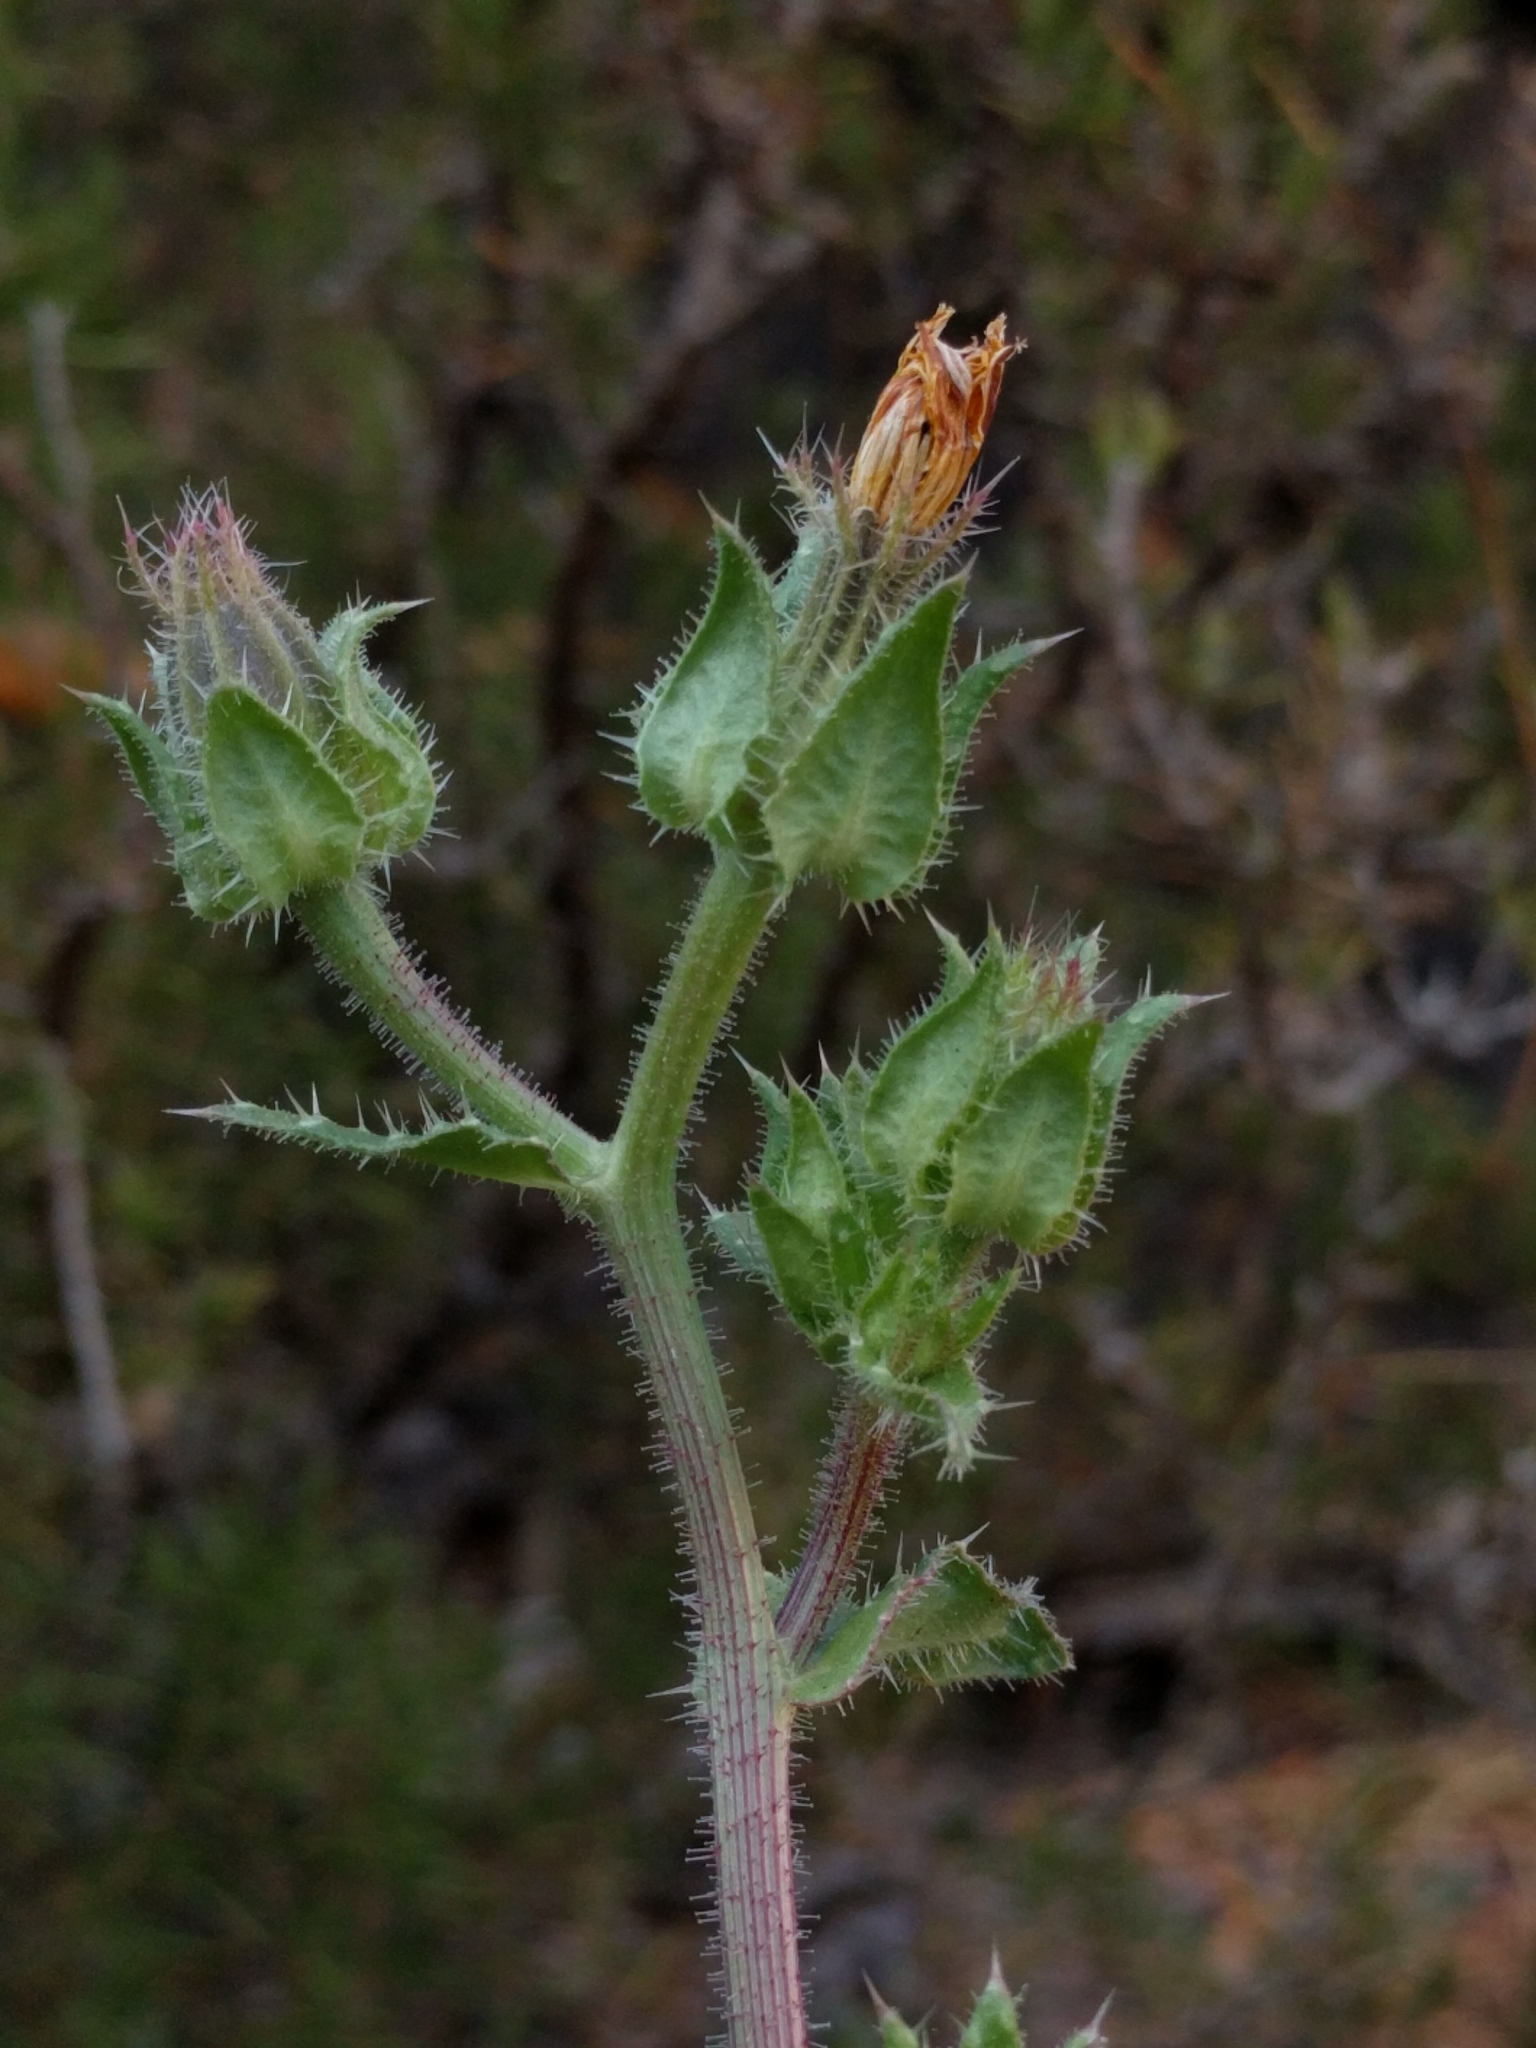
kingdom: Plantae
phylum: Tracheophyta
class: Magnoliopsida
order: Asterales
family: Asteraceae
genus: Helminthotheca
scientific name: Helminthotheca echioides
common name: Ox-tongue
